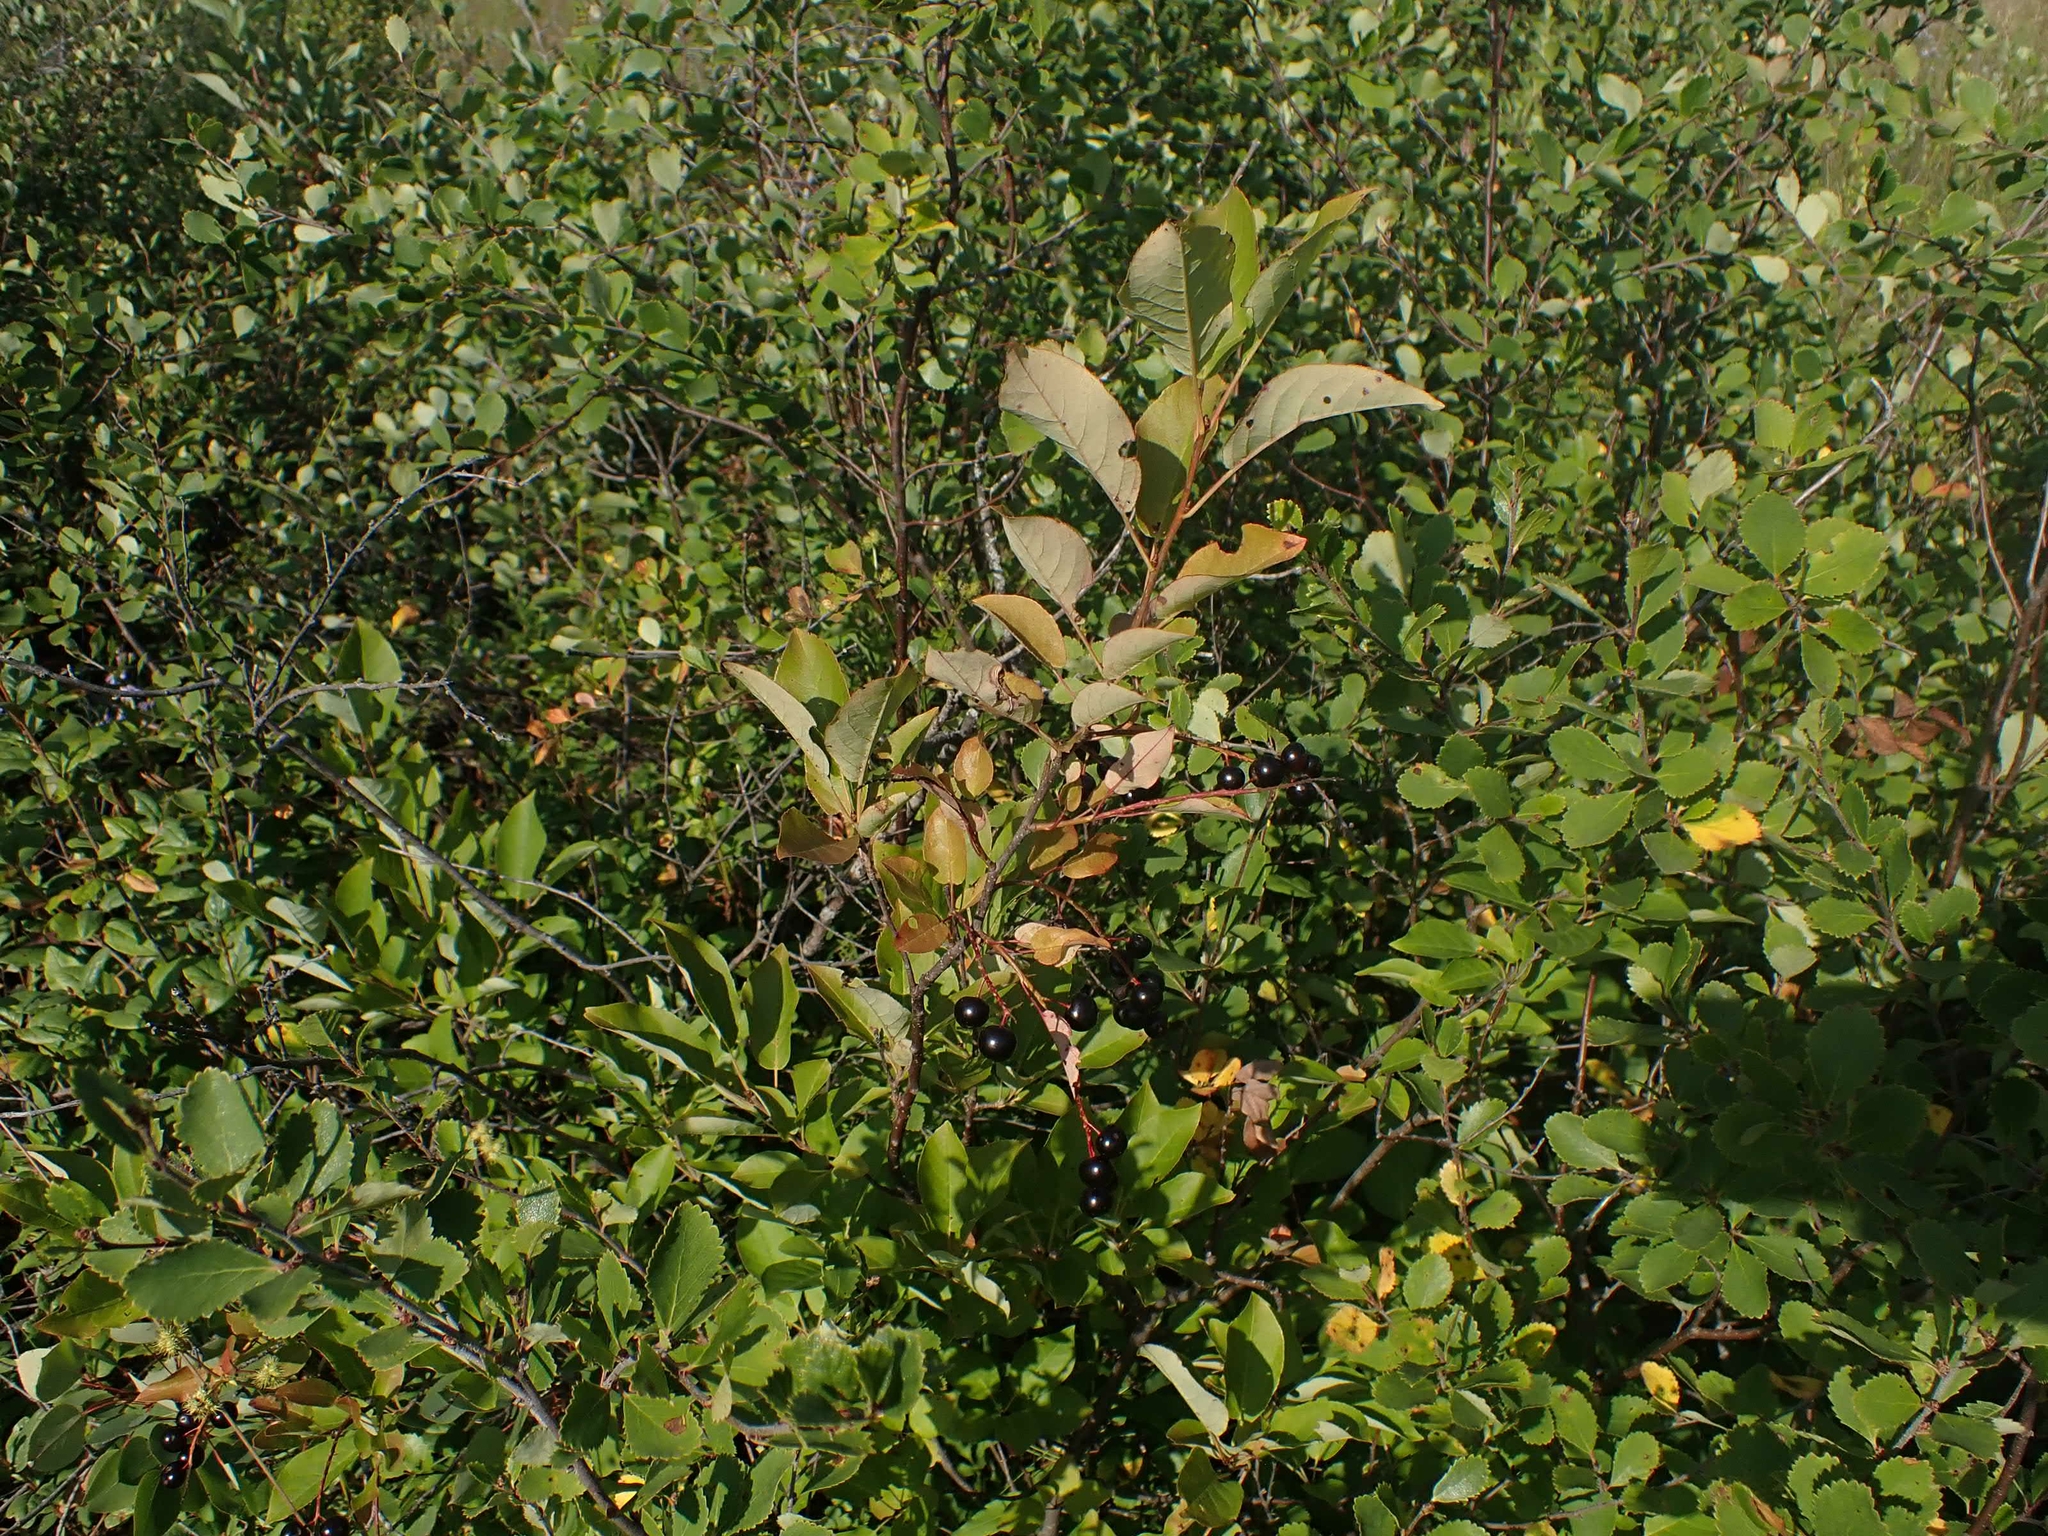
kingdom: Plantae
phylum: Tracheophyta
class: Magnoliopsida
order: Rosales
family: Rosaceae
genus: Prunus
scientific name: Prunus virginiana
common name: Chokecherry
